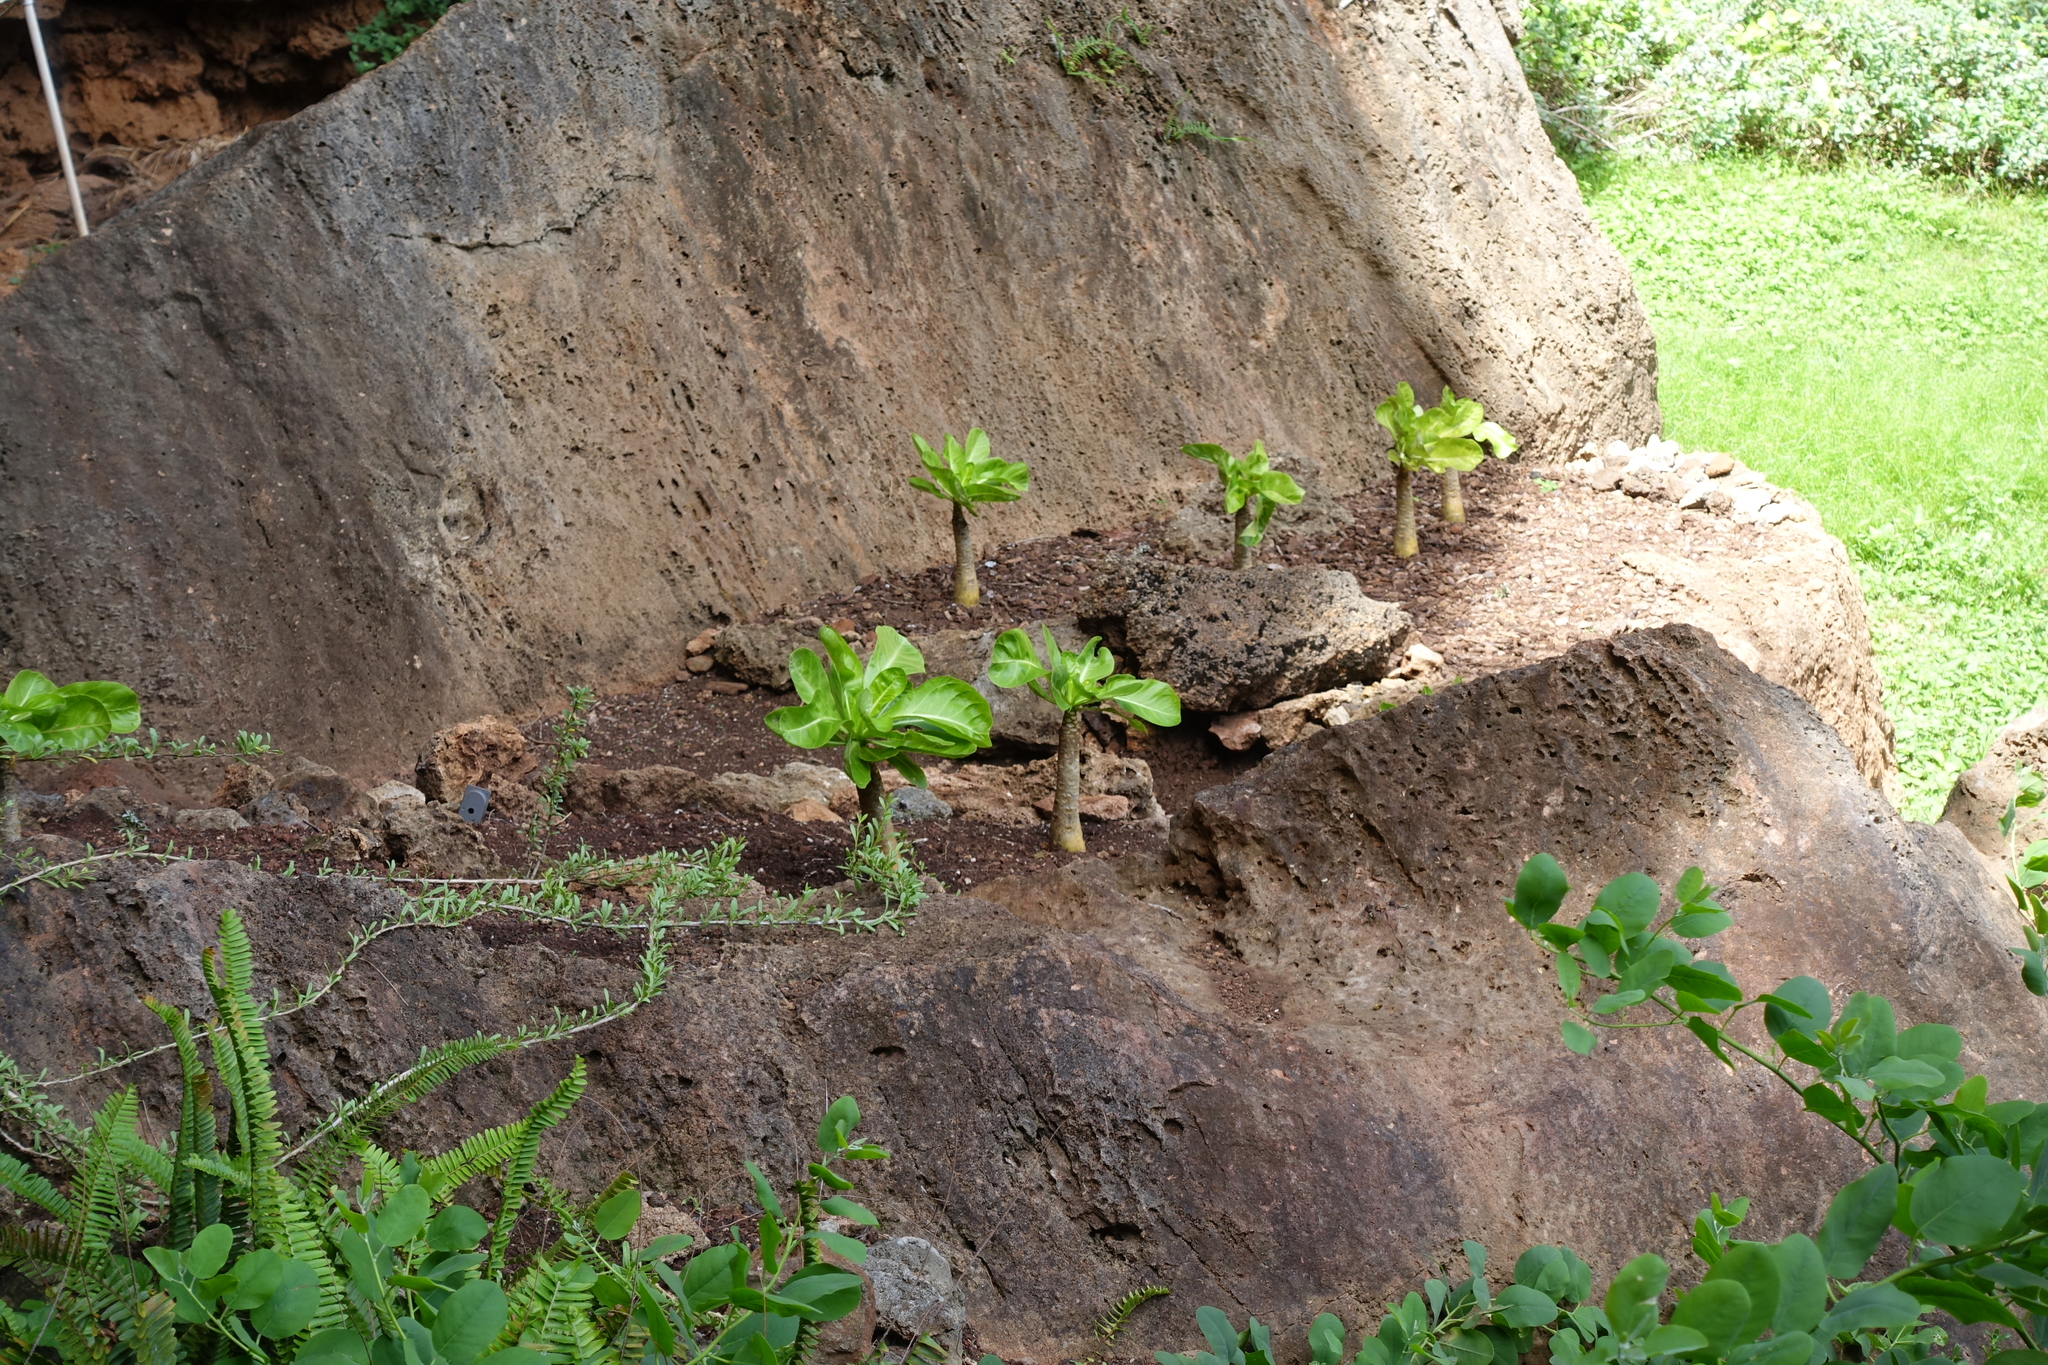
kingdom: Plantae
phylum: Tracheophyta
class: Magnoliopsida
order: Asterales
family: Campanulaceae
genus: Brighamia
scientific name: Brighamia insignis
